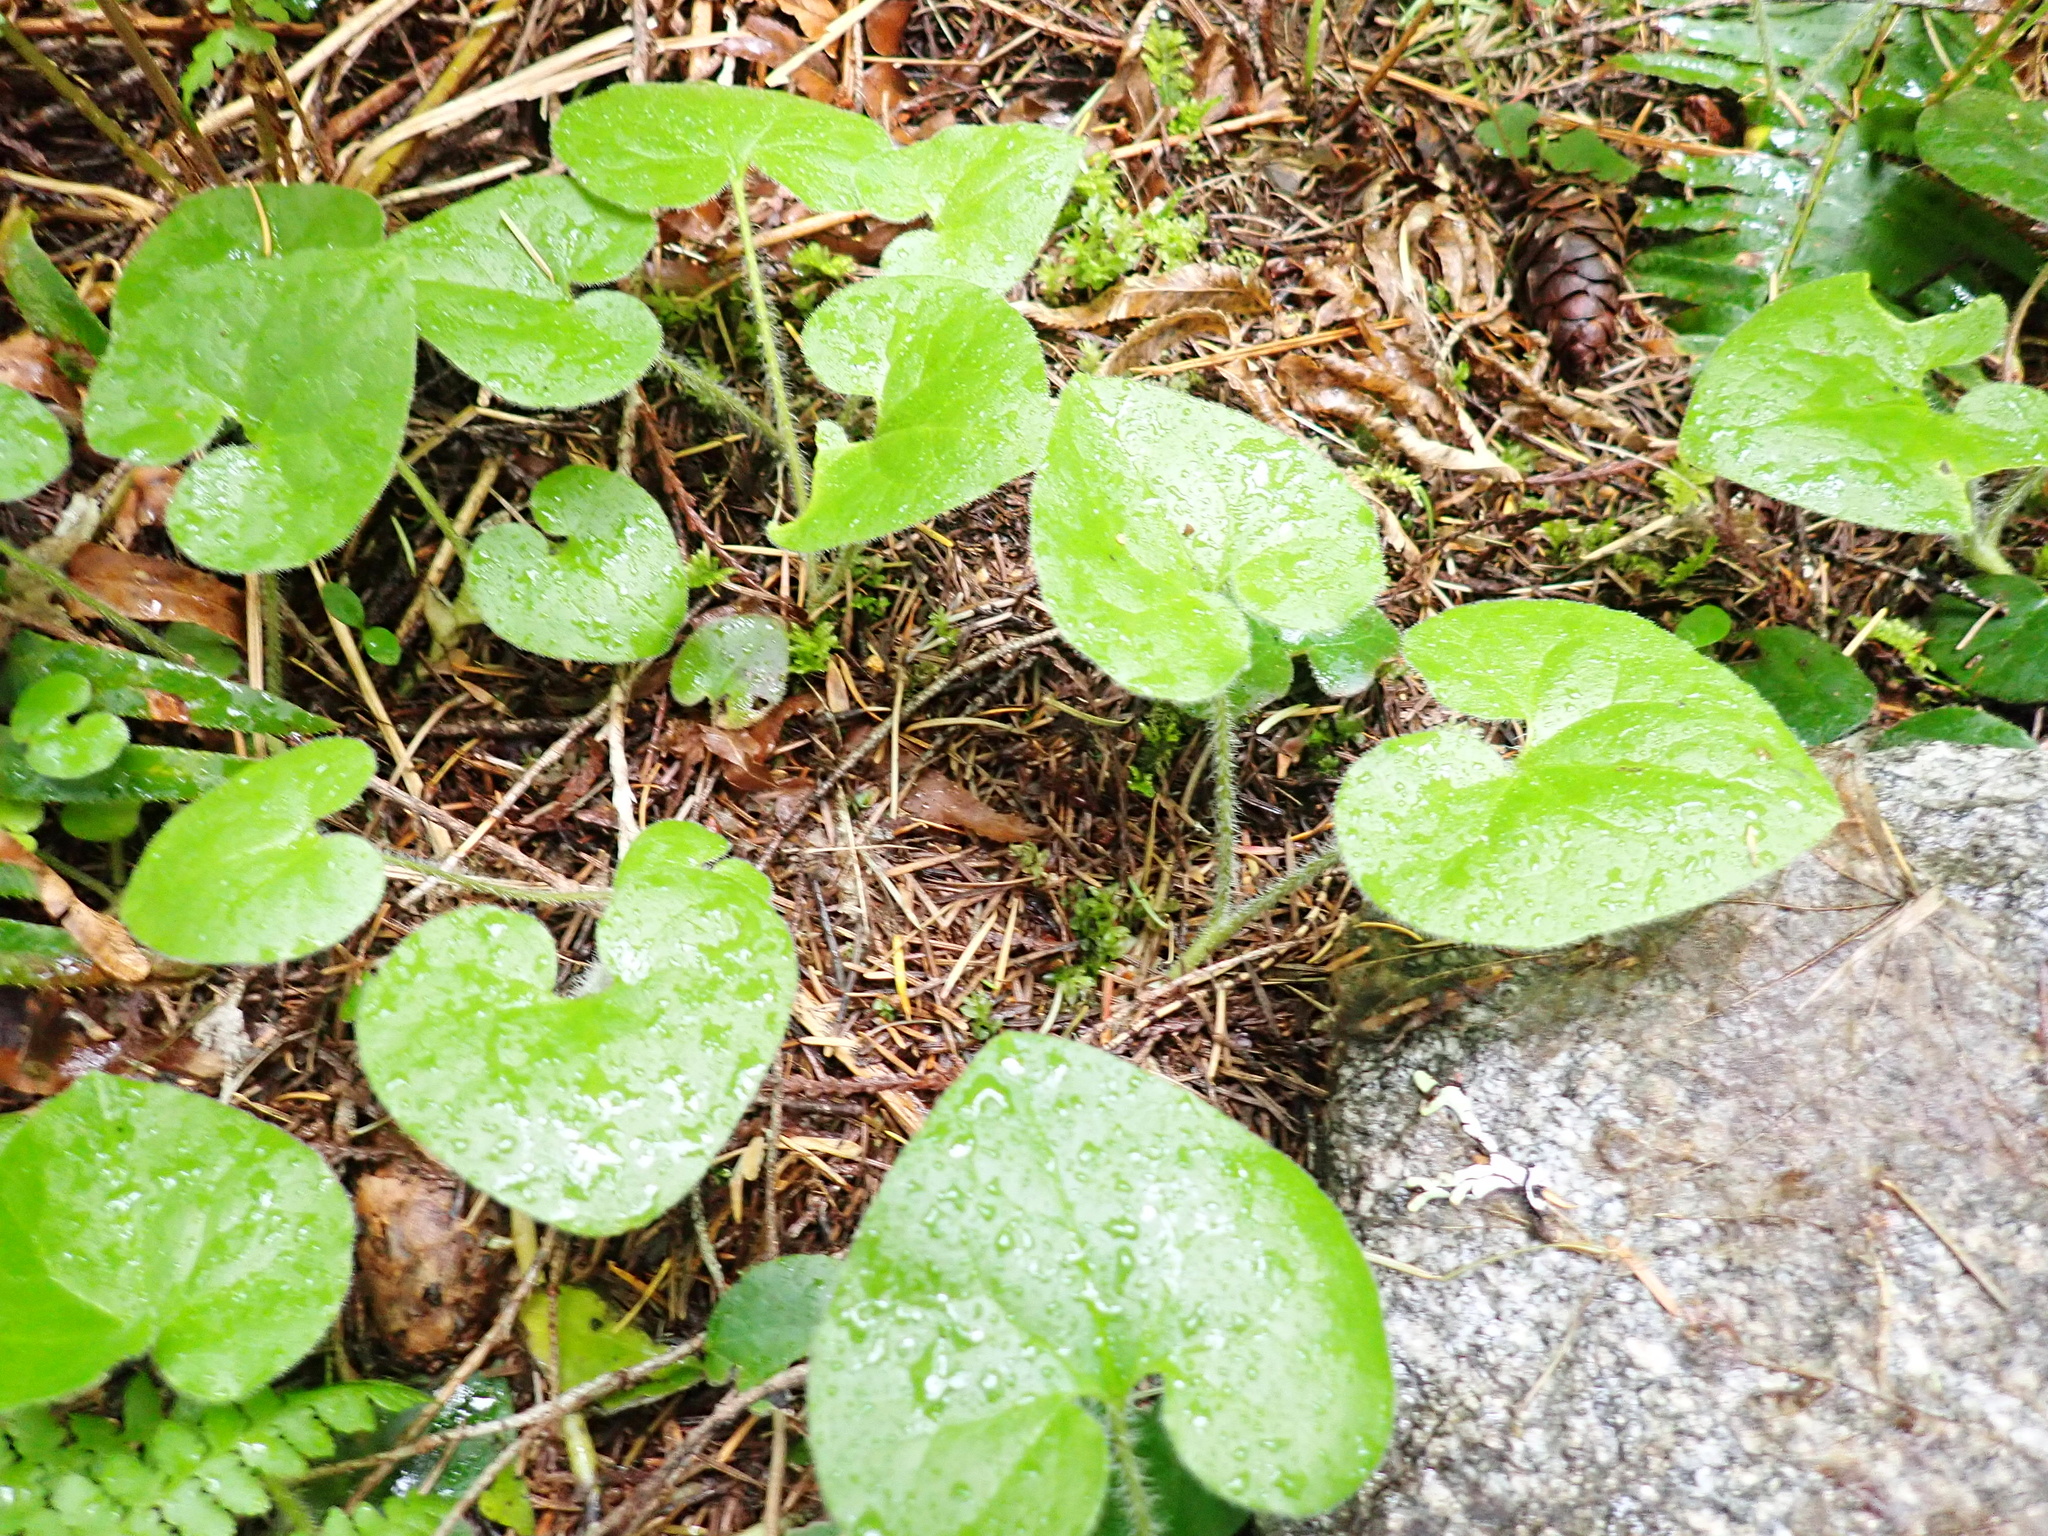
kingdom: Plantae
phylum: Tracheophyta
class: Magnoliopsida
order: Piperales
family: Aristolochiaceae
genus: Asarum
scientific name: Asarum caudatum
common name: Wild ginger
